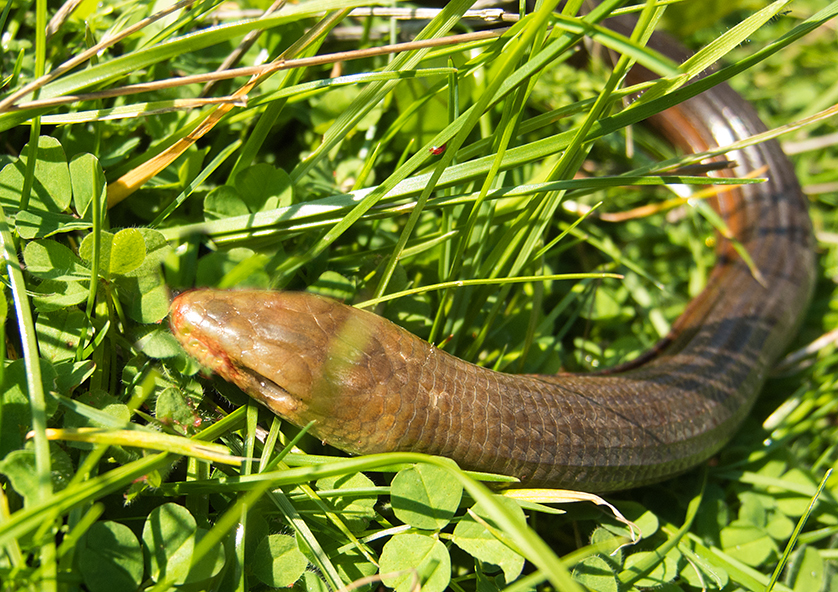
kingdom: Animalia
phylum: Chordata
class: Squamata
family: Anguidae
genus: Pseudopus
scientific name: Pseudopus apodus
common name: European glass lizard
